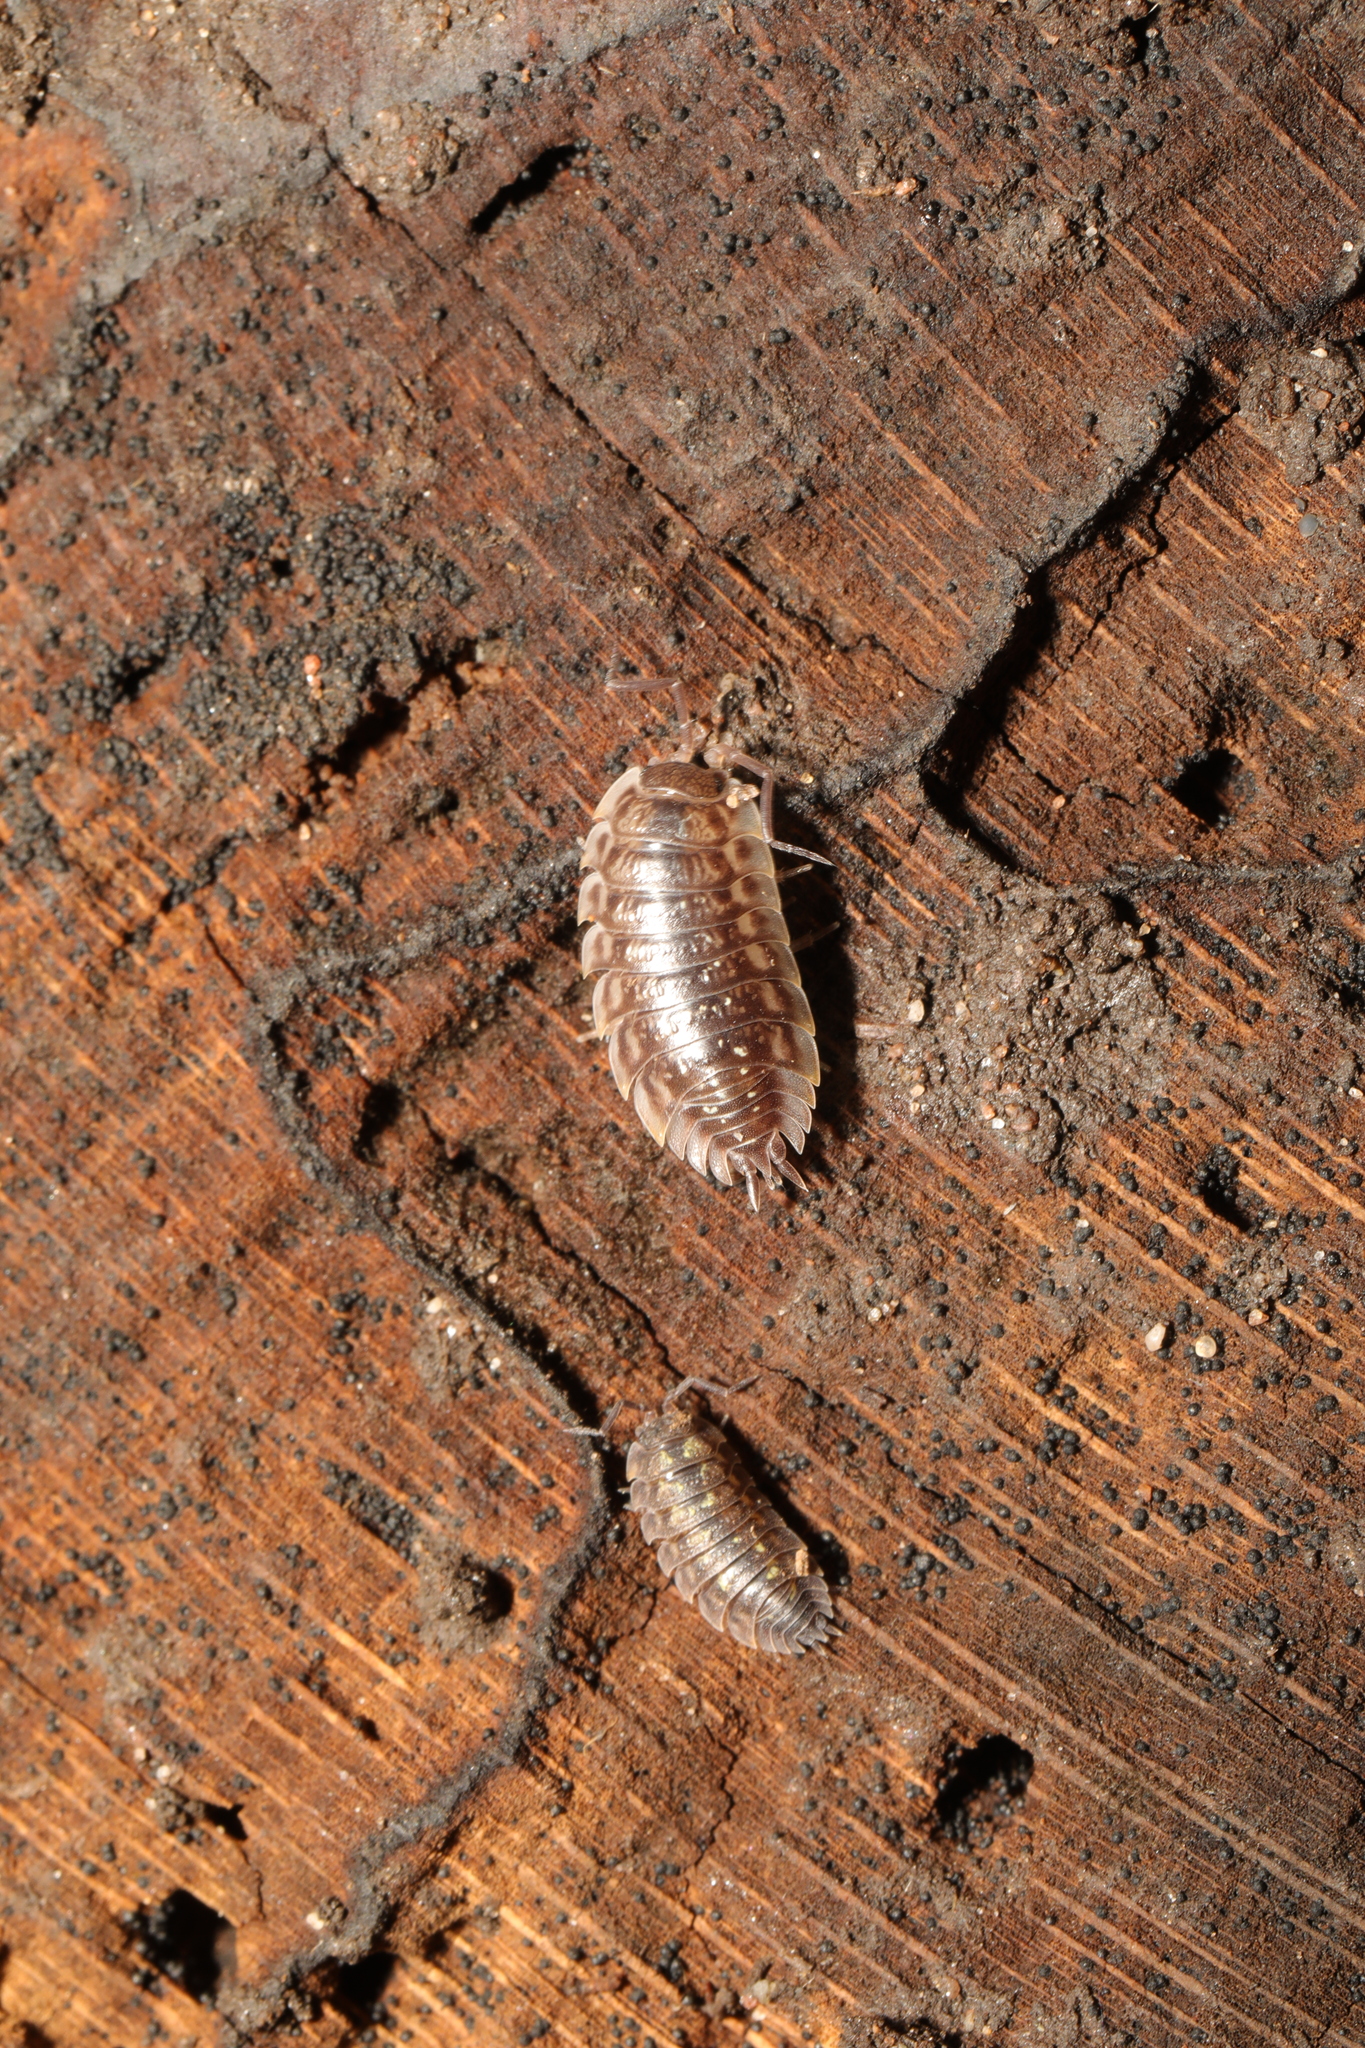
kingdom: Animalia
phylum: Arthropoda
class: Malacostraca
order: Isopoda
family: Oniscidae
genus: Oniscus
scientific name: Oniscus asellus
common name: Common shiny woodlouse
